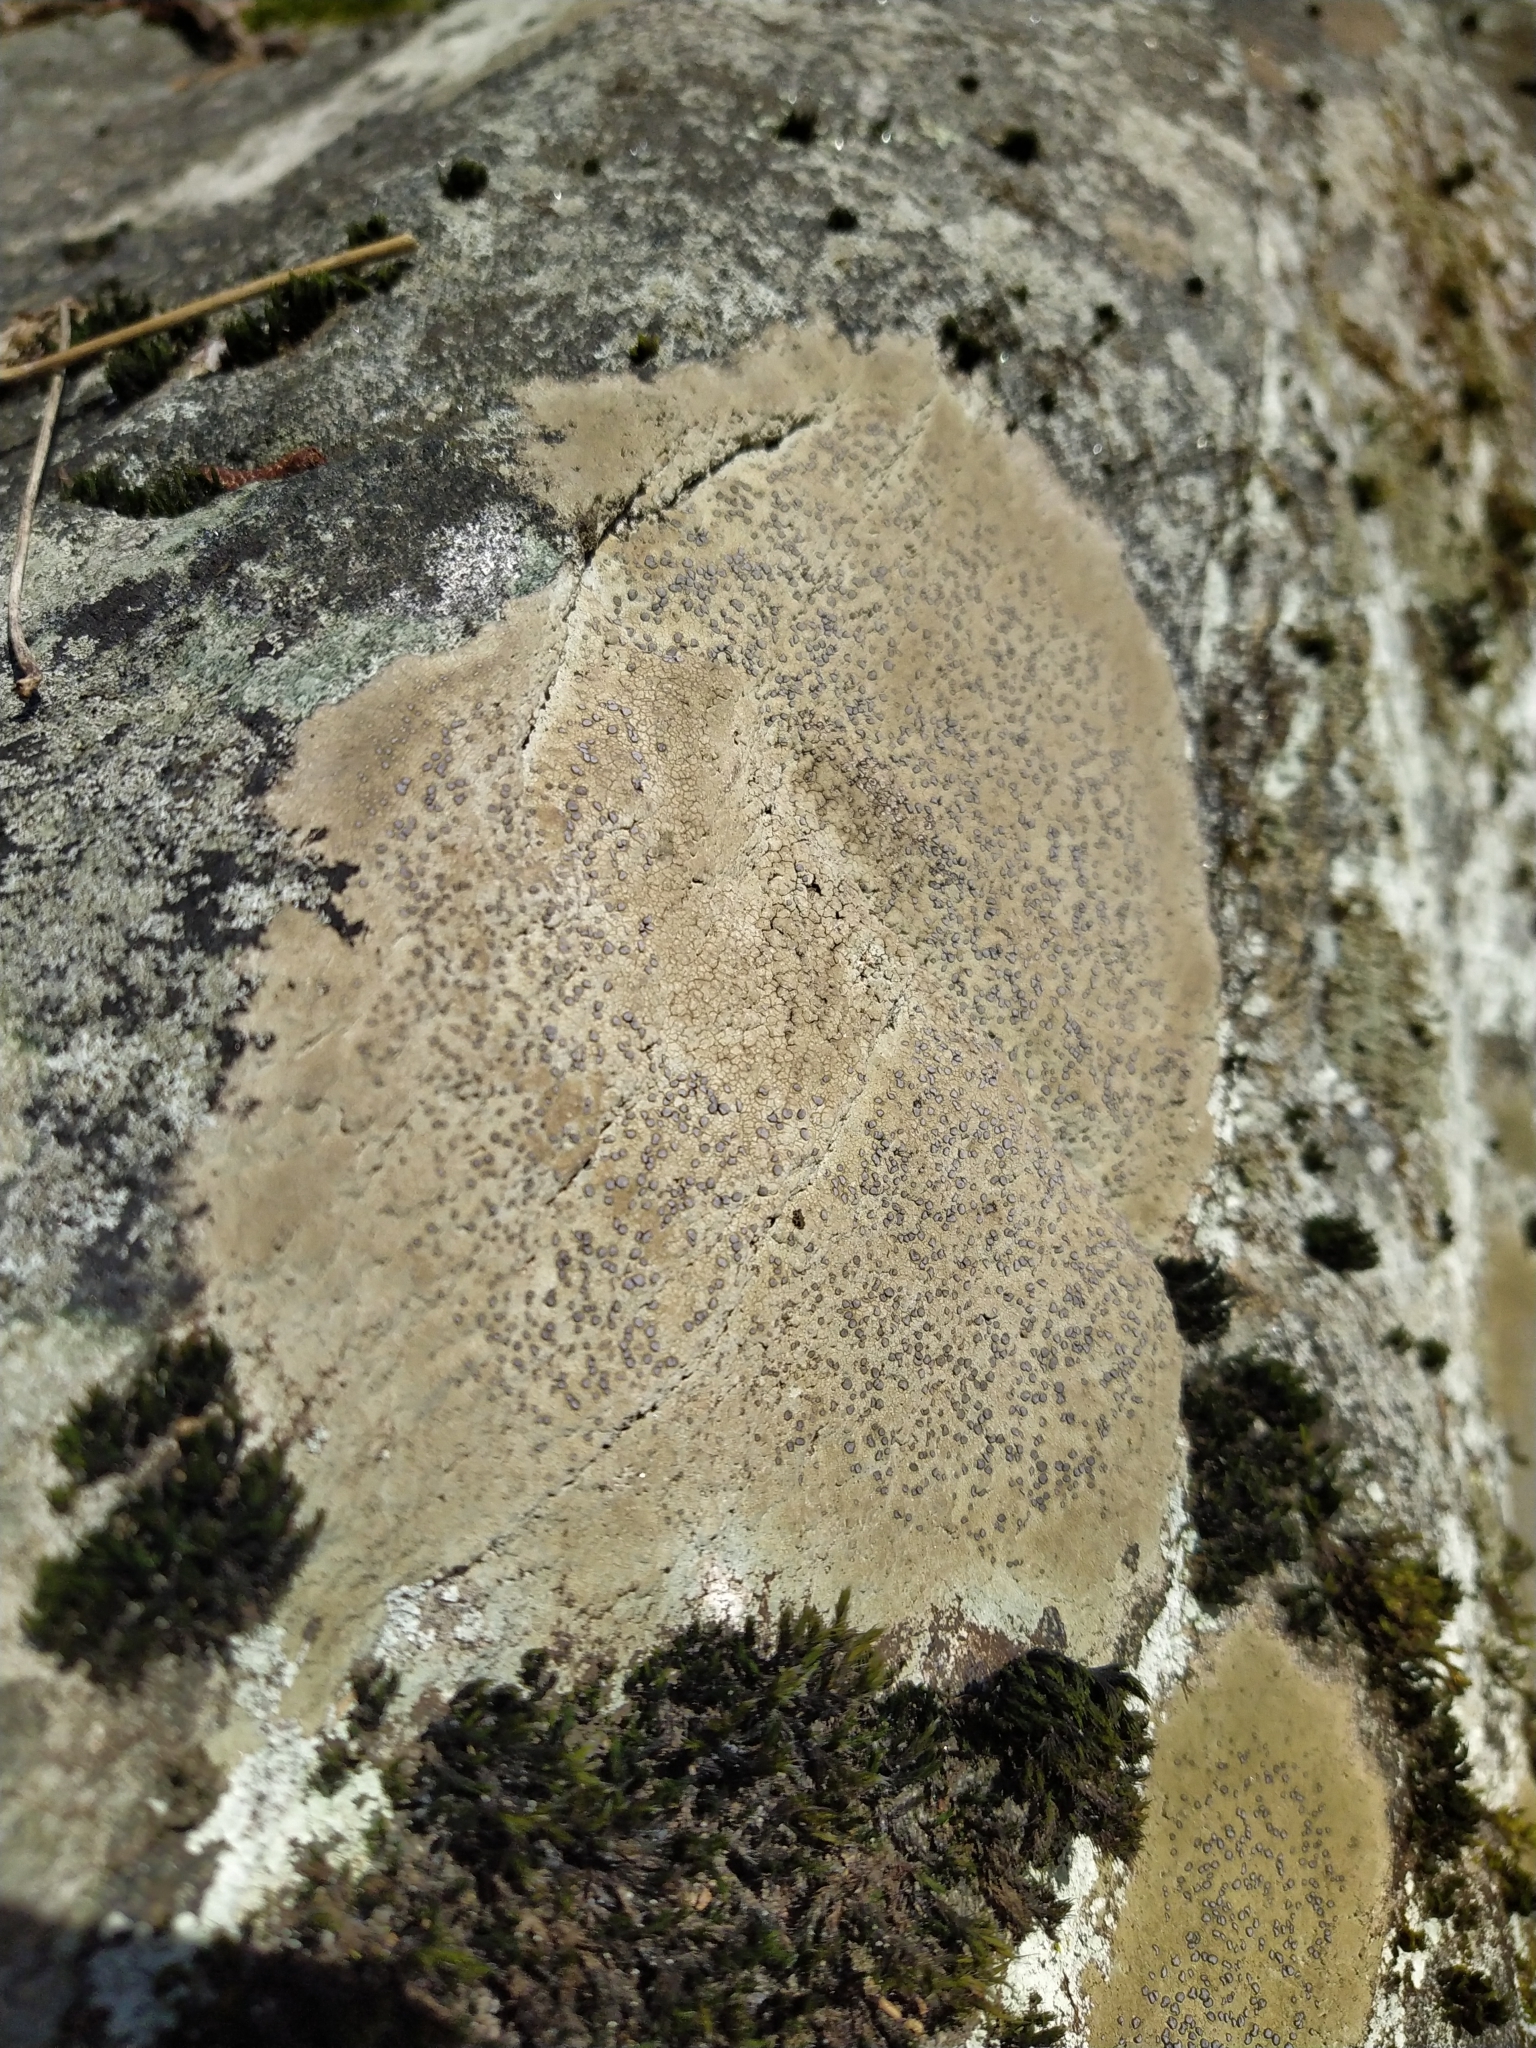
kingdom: Fungi
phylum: Ascomycota
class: Lecanoromycetes
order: Lecideales
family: Lecideaceae
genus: Porpidia
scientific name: Porpidia albocaerulescens
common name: Smokey-eyed boulder lichen
